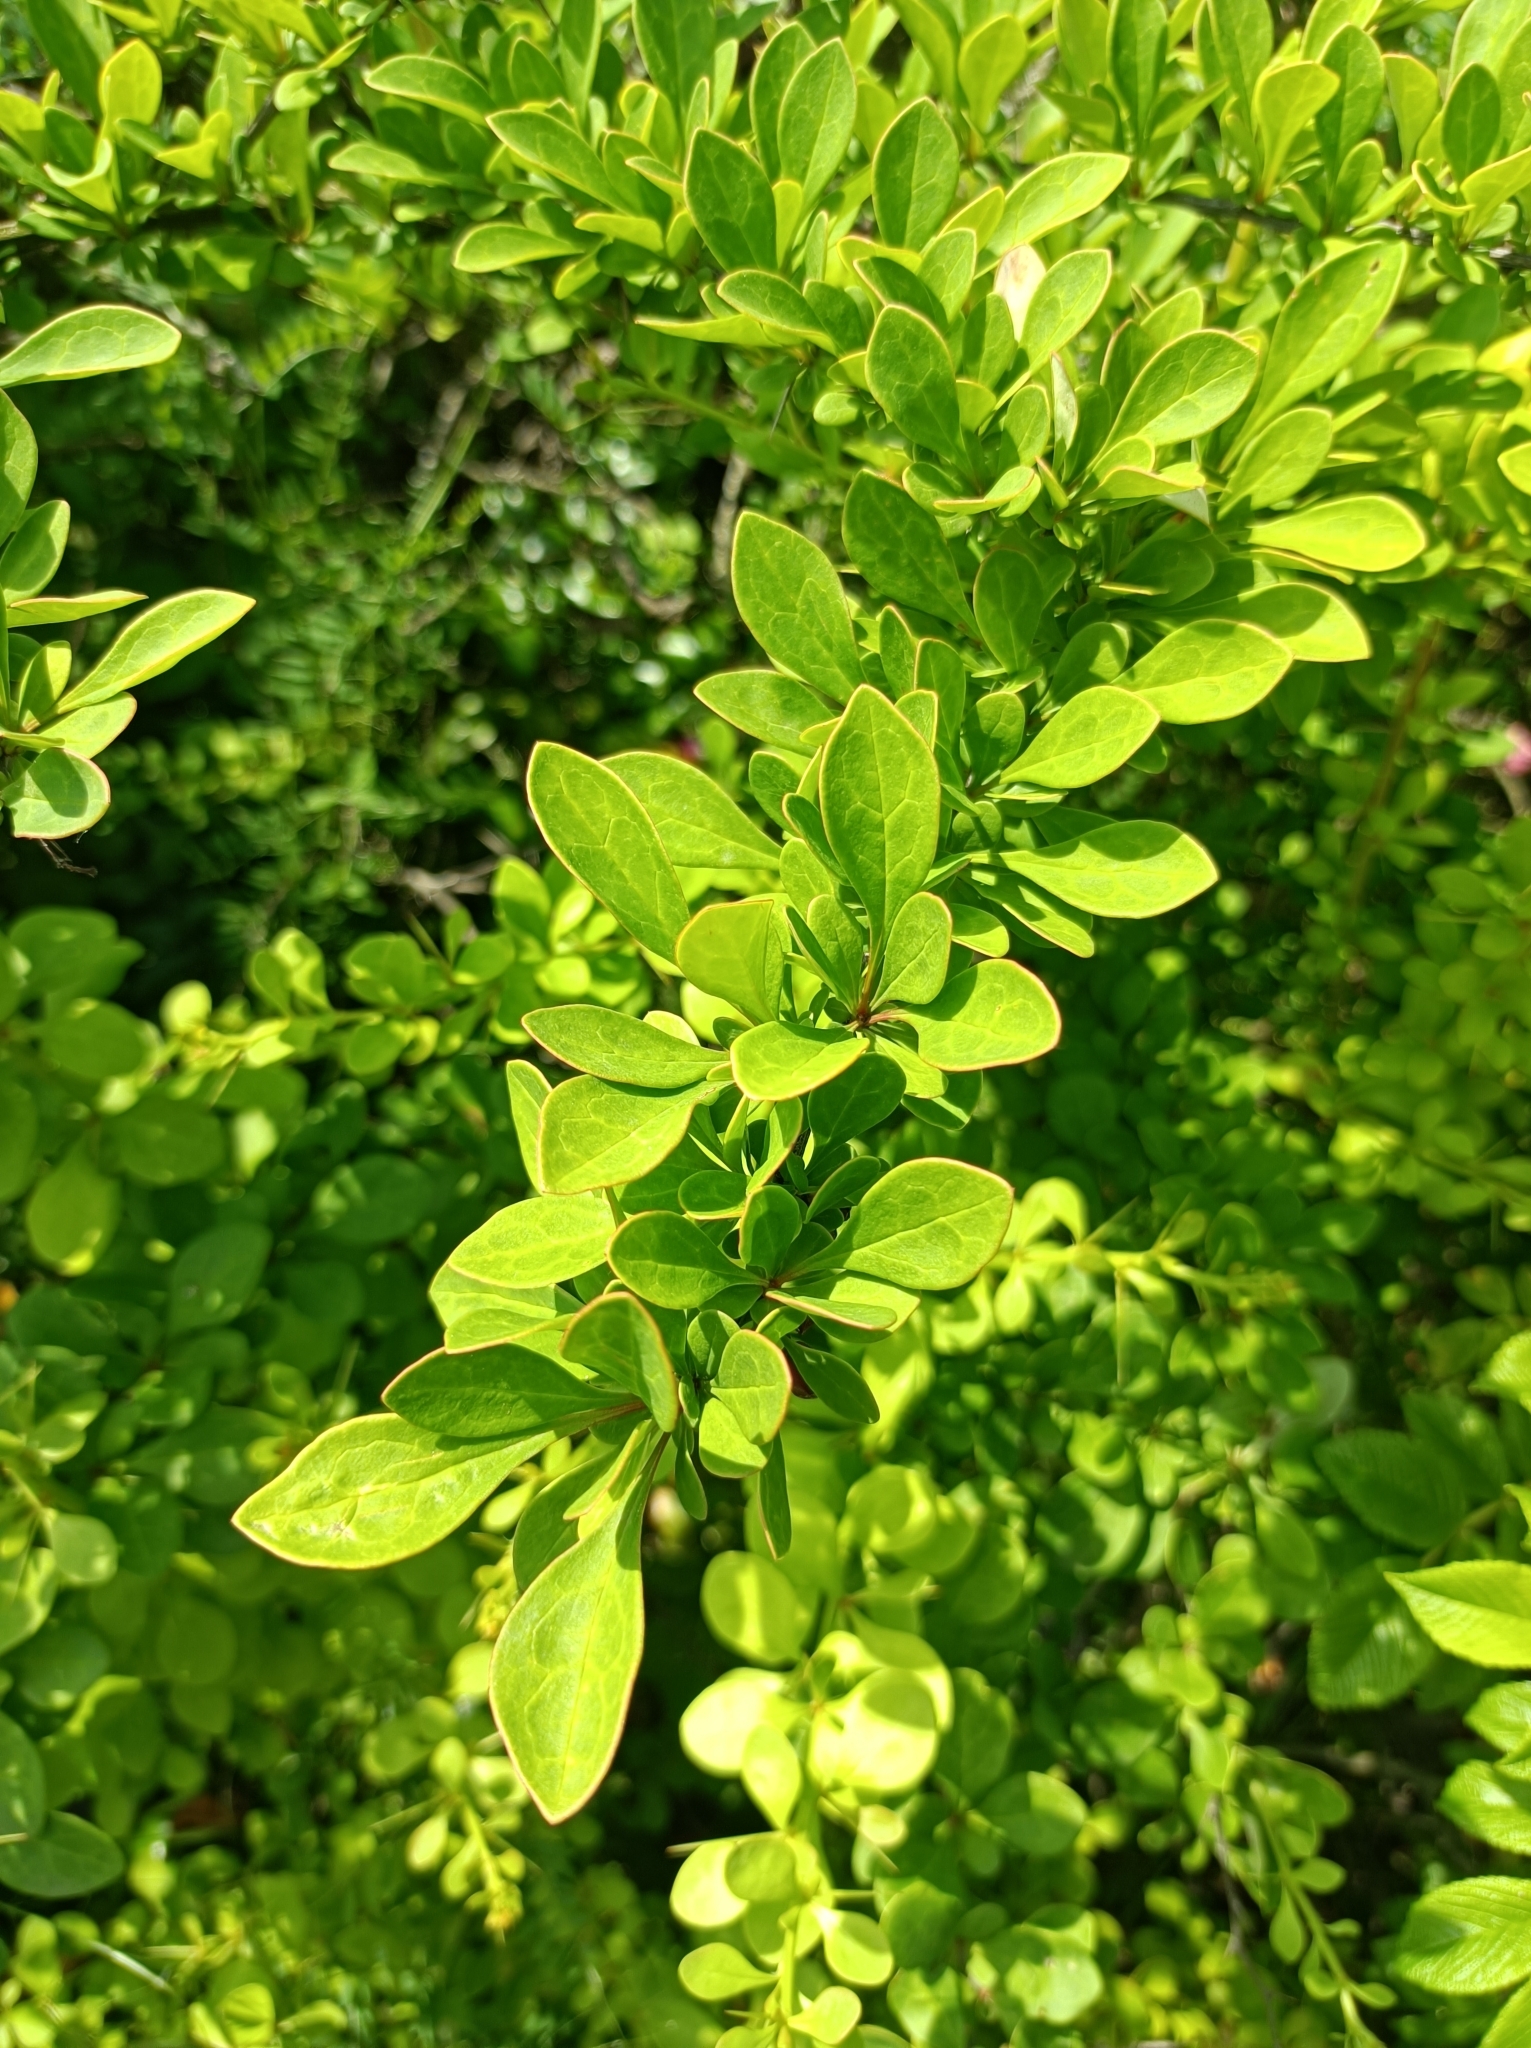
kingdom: Plantae
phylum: Tracheophyta
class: Magnoliopsida
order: Ranunculales
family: Berberidaceae
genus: Berberis
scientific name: Berberis thunbergii
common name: Japanese barberry
